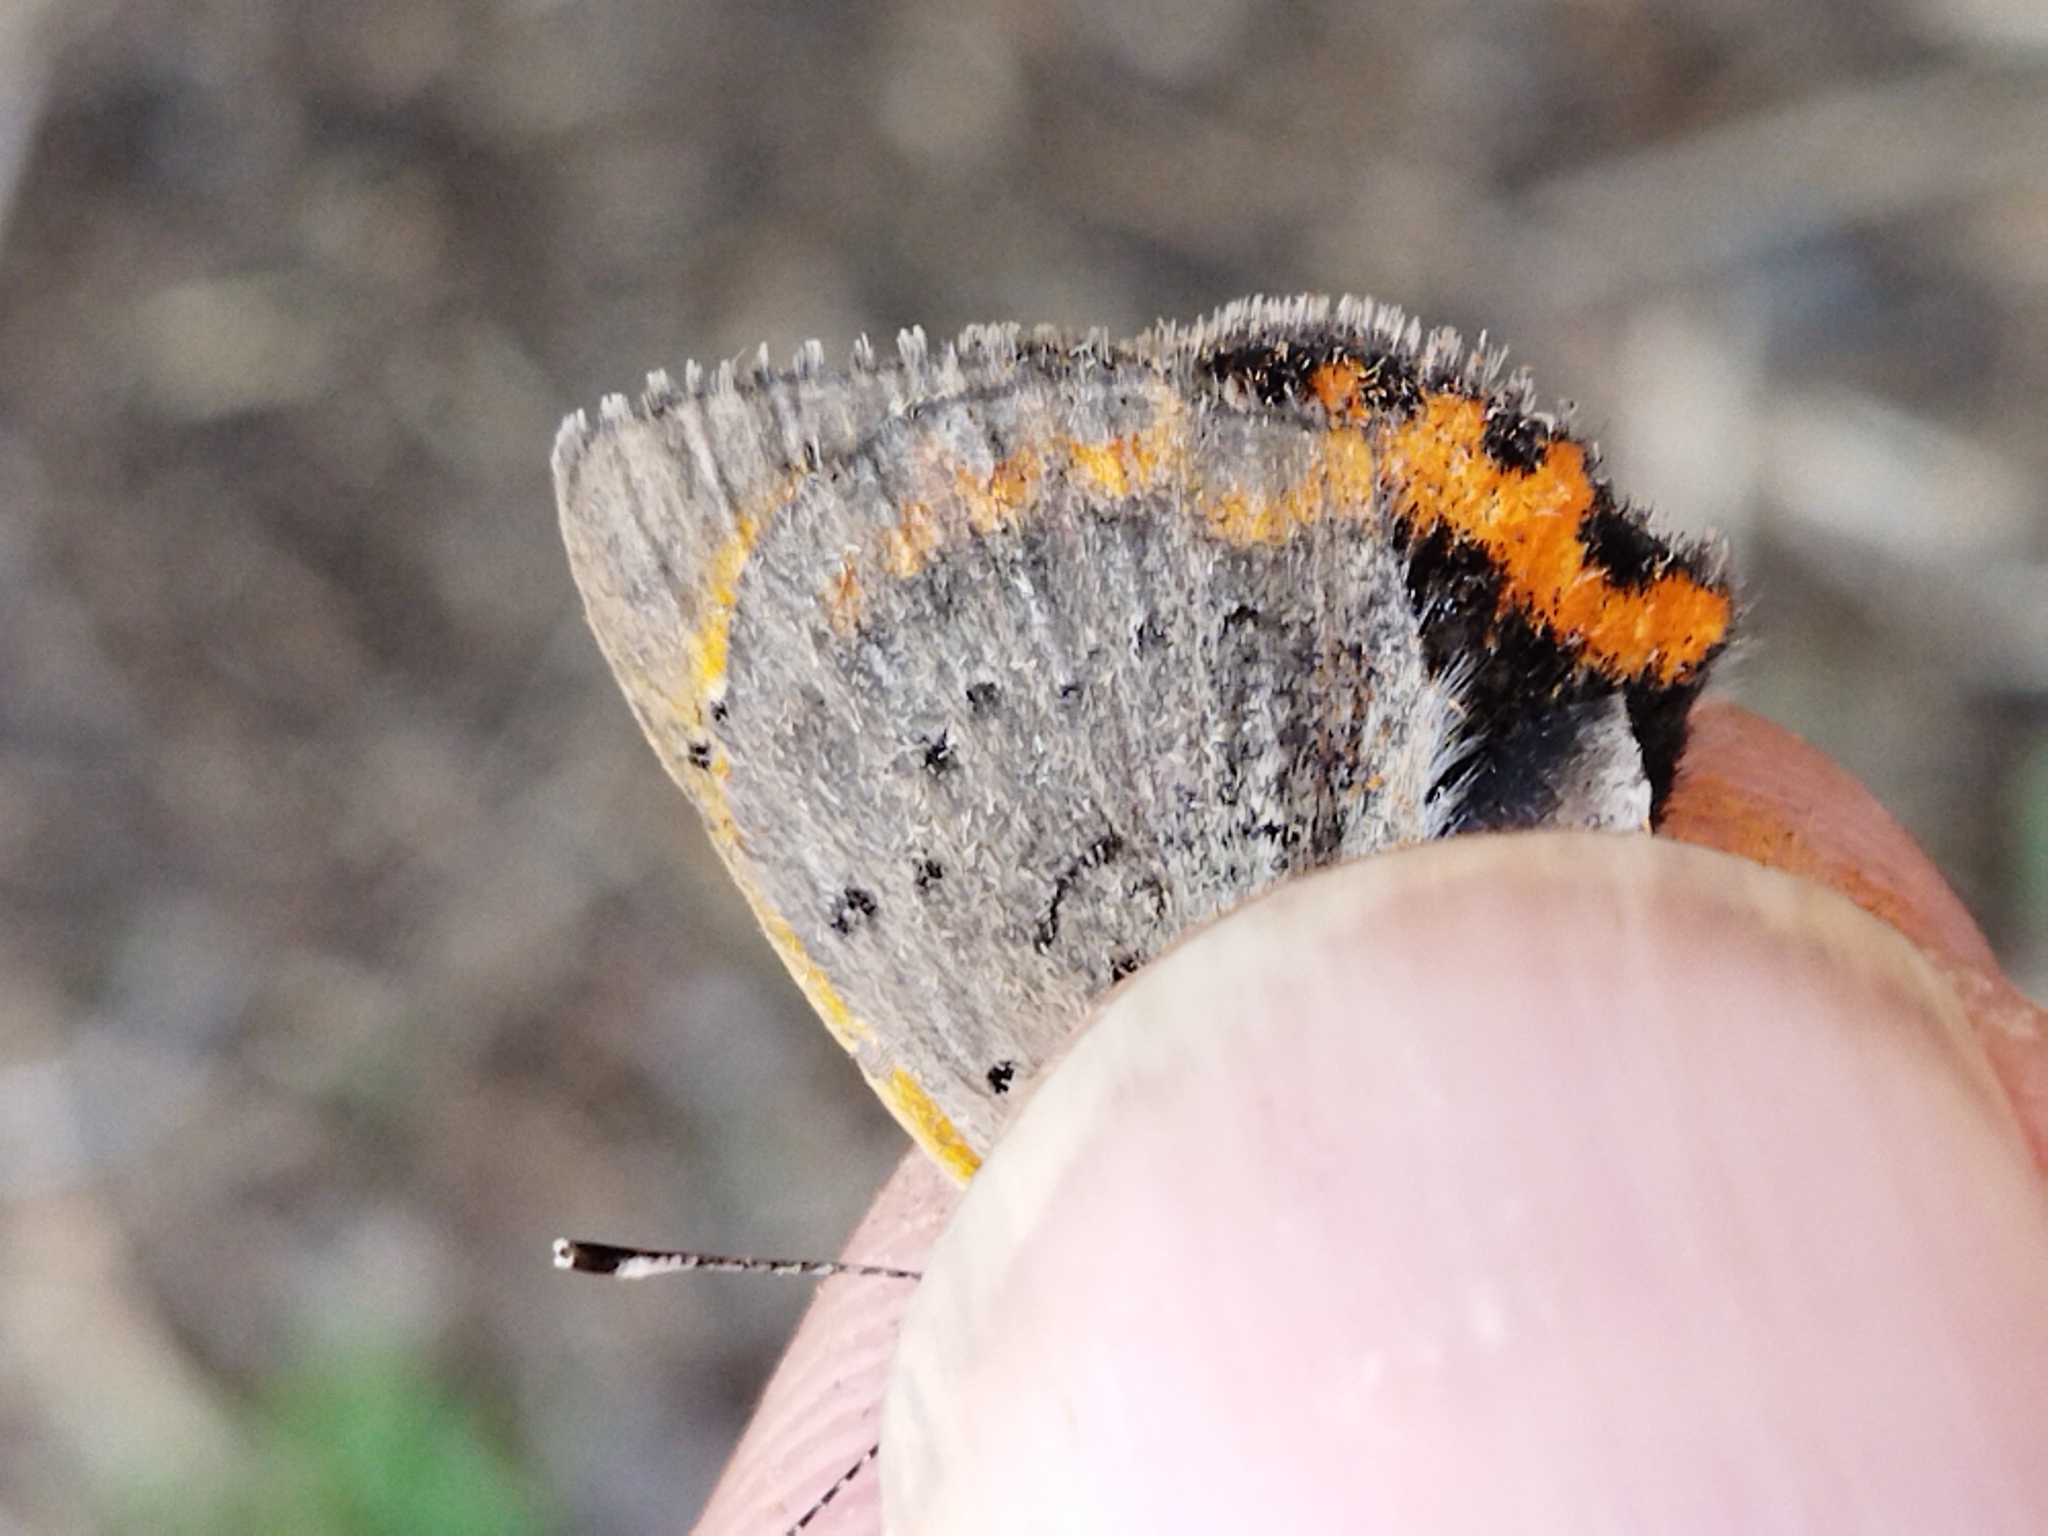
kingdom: Animalia
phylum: Arthropoda
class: Insecta
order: Lepidoptera
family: Lycaenidae
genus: Lycaena
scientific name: Lycaena phlaeas
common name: Small copper
